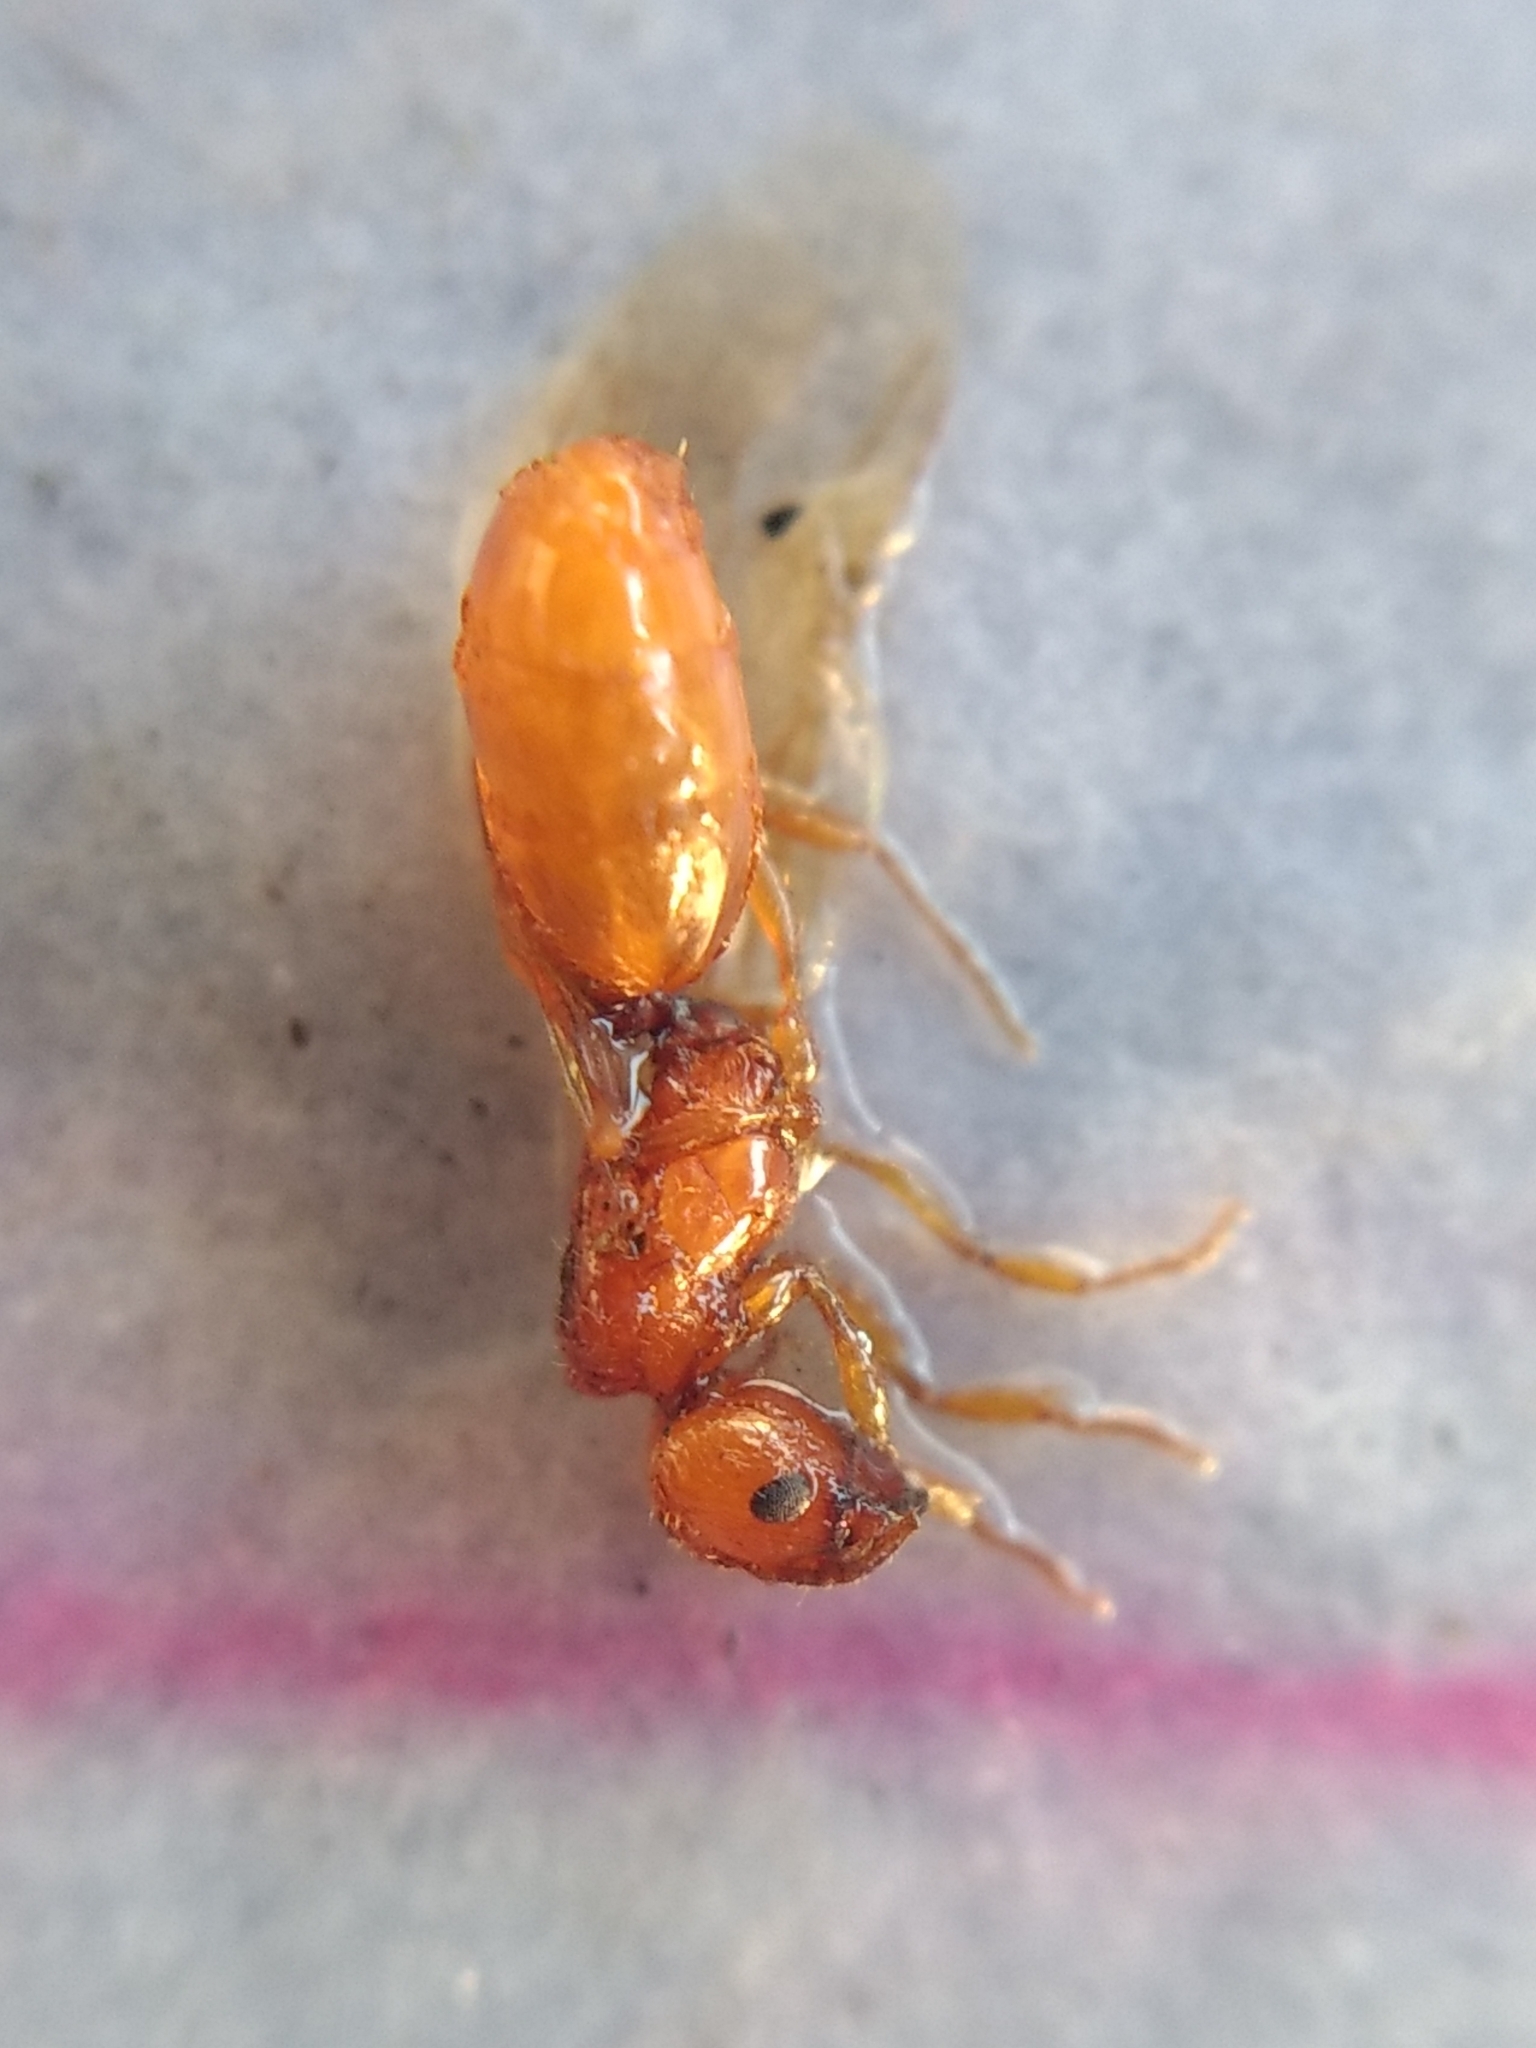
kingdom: Animalia
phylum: Arthropoda
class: Insecta
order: Hymenoptera
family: Formicidae
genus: Pheidole
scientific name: Pheidole cerebrosior
